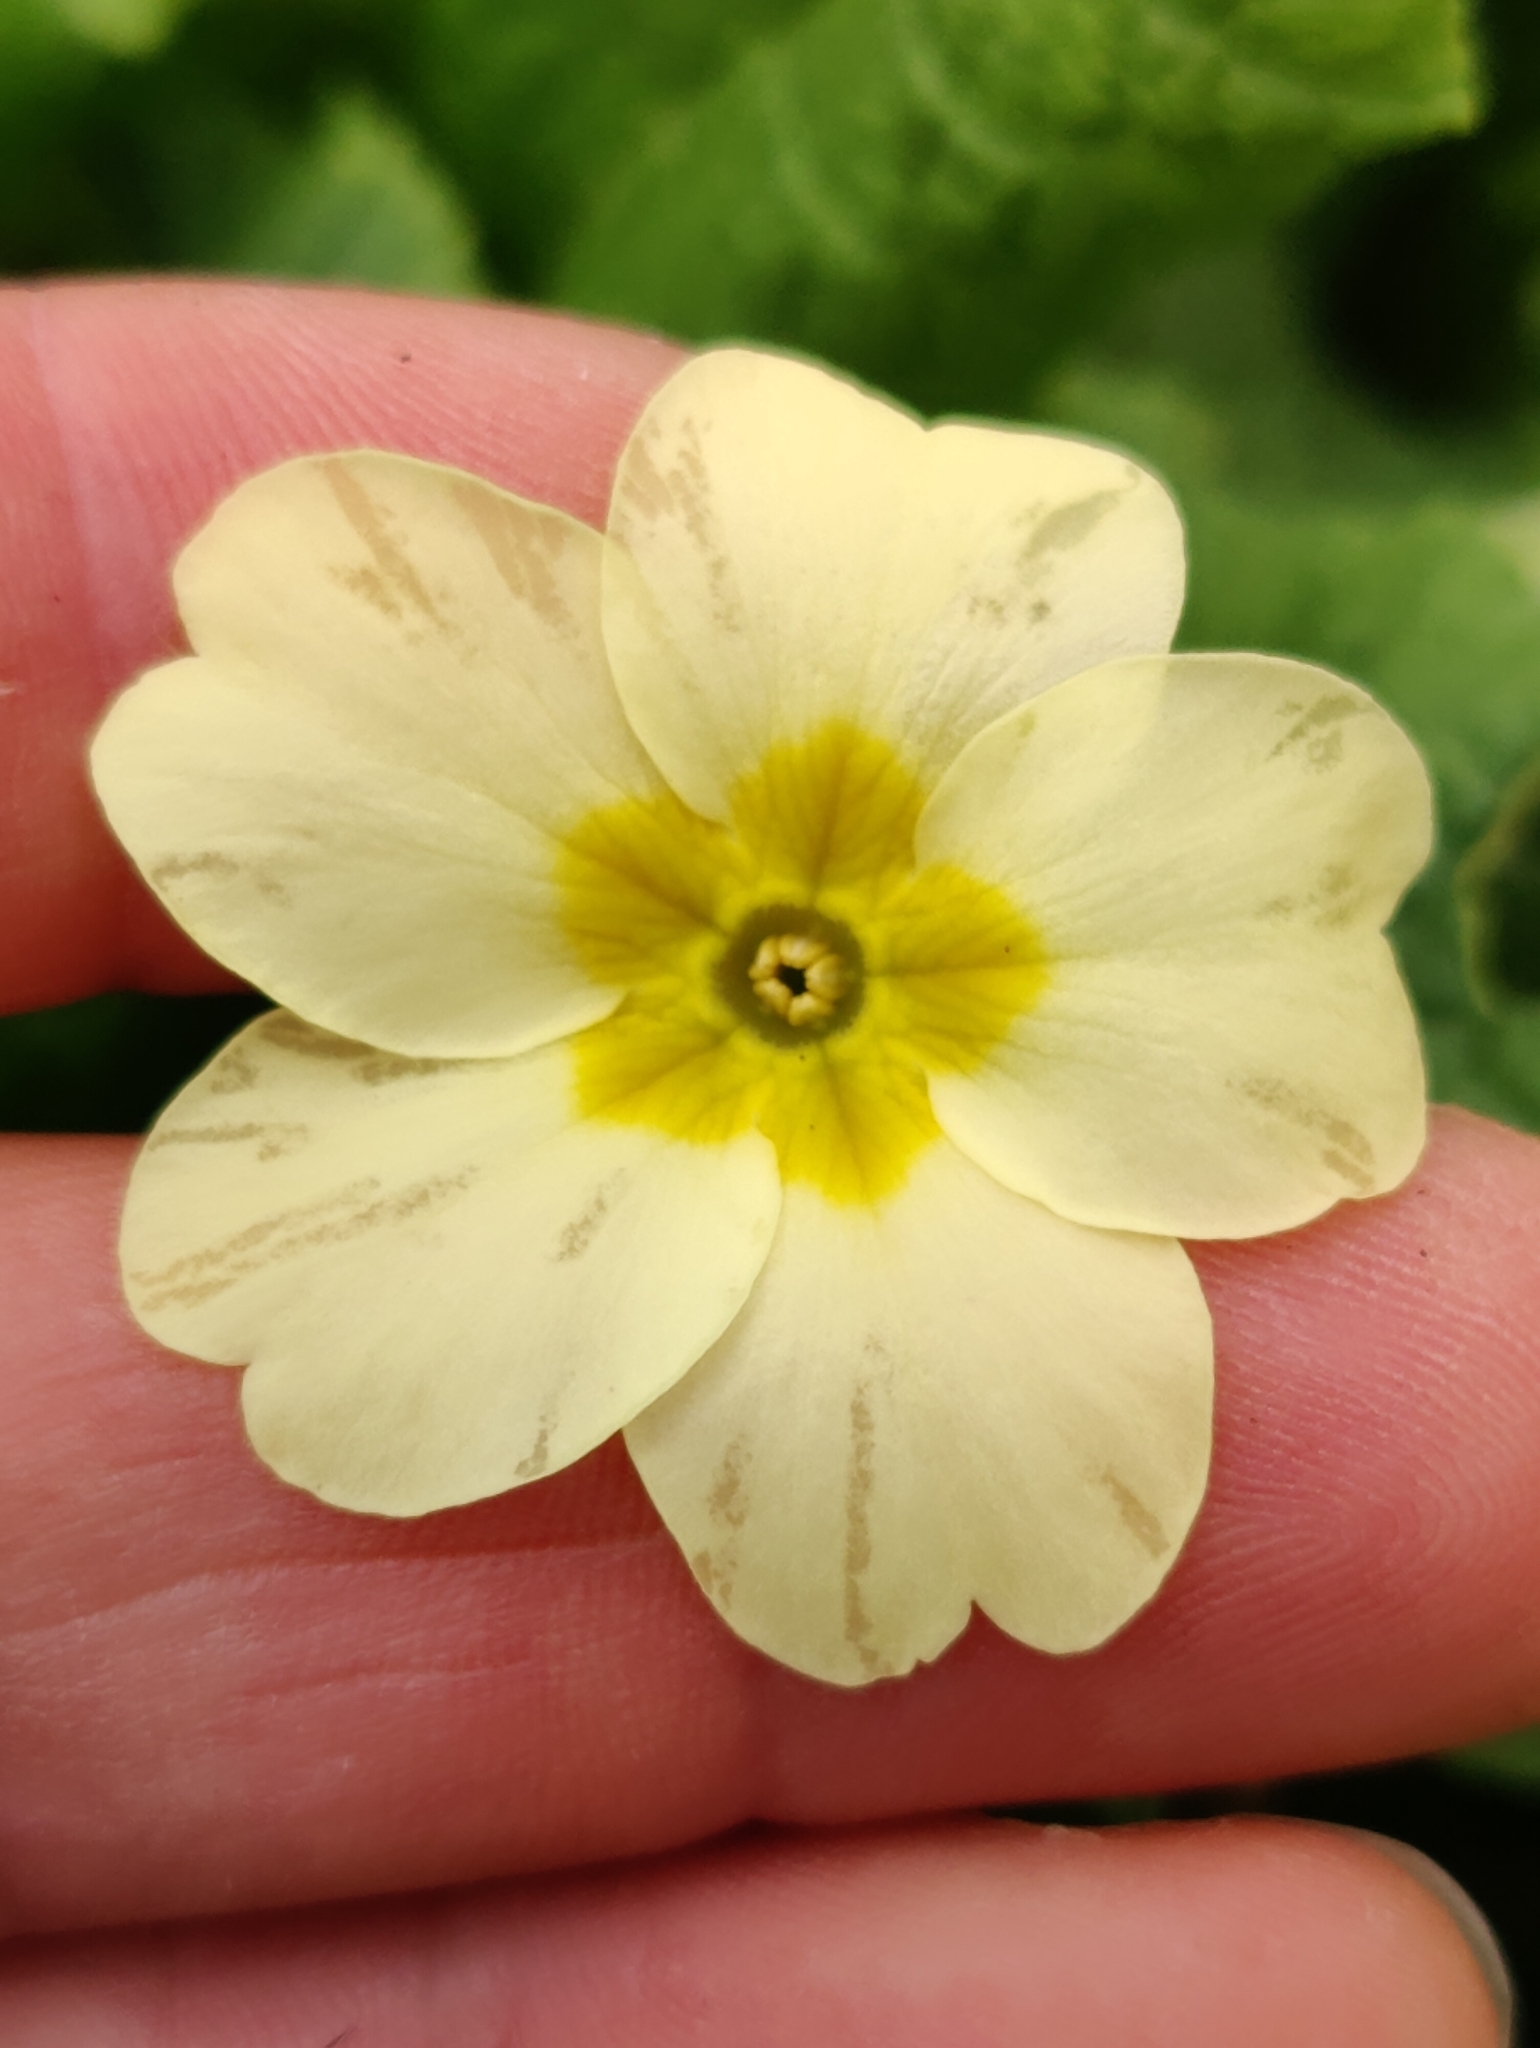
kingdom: Plantae
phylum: Tracheophyta
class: Magnoliopsida
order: Ericales
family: Primulaceae
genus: Primula
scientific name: Primula vulgaris
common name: Primrose
